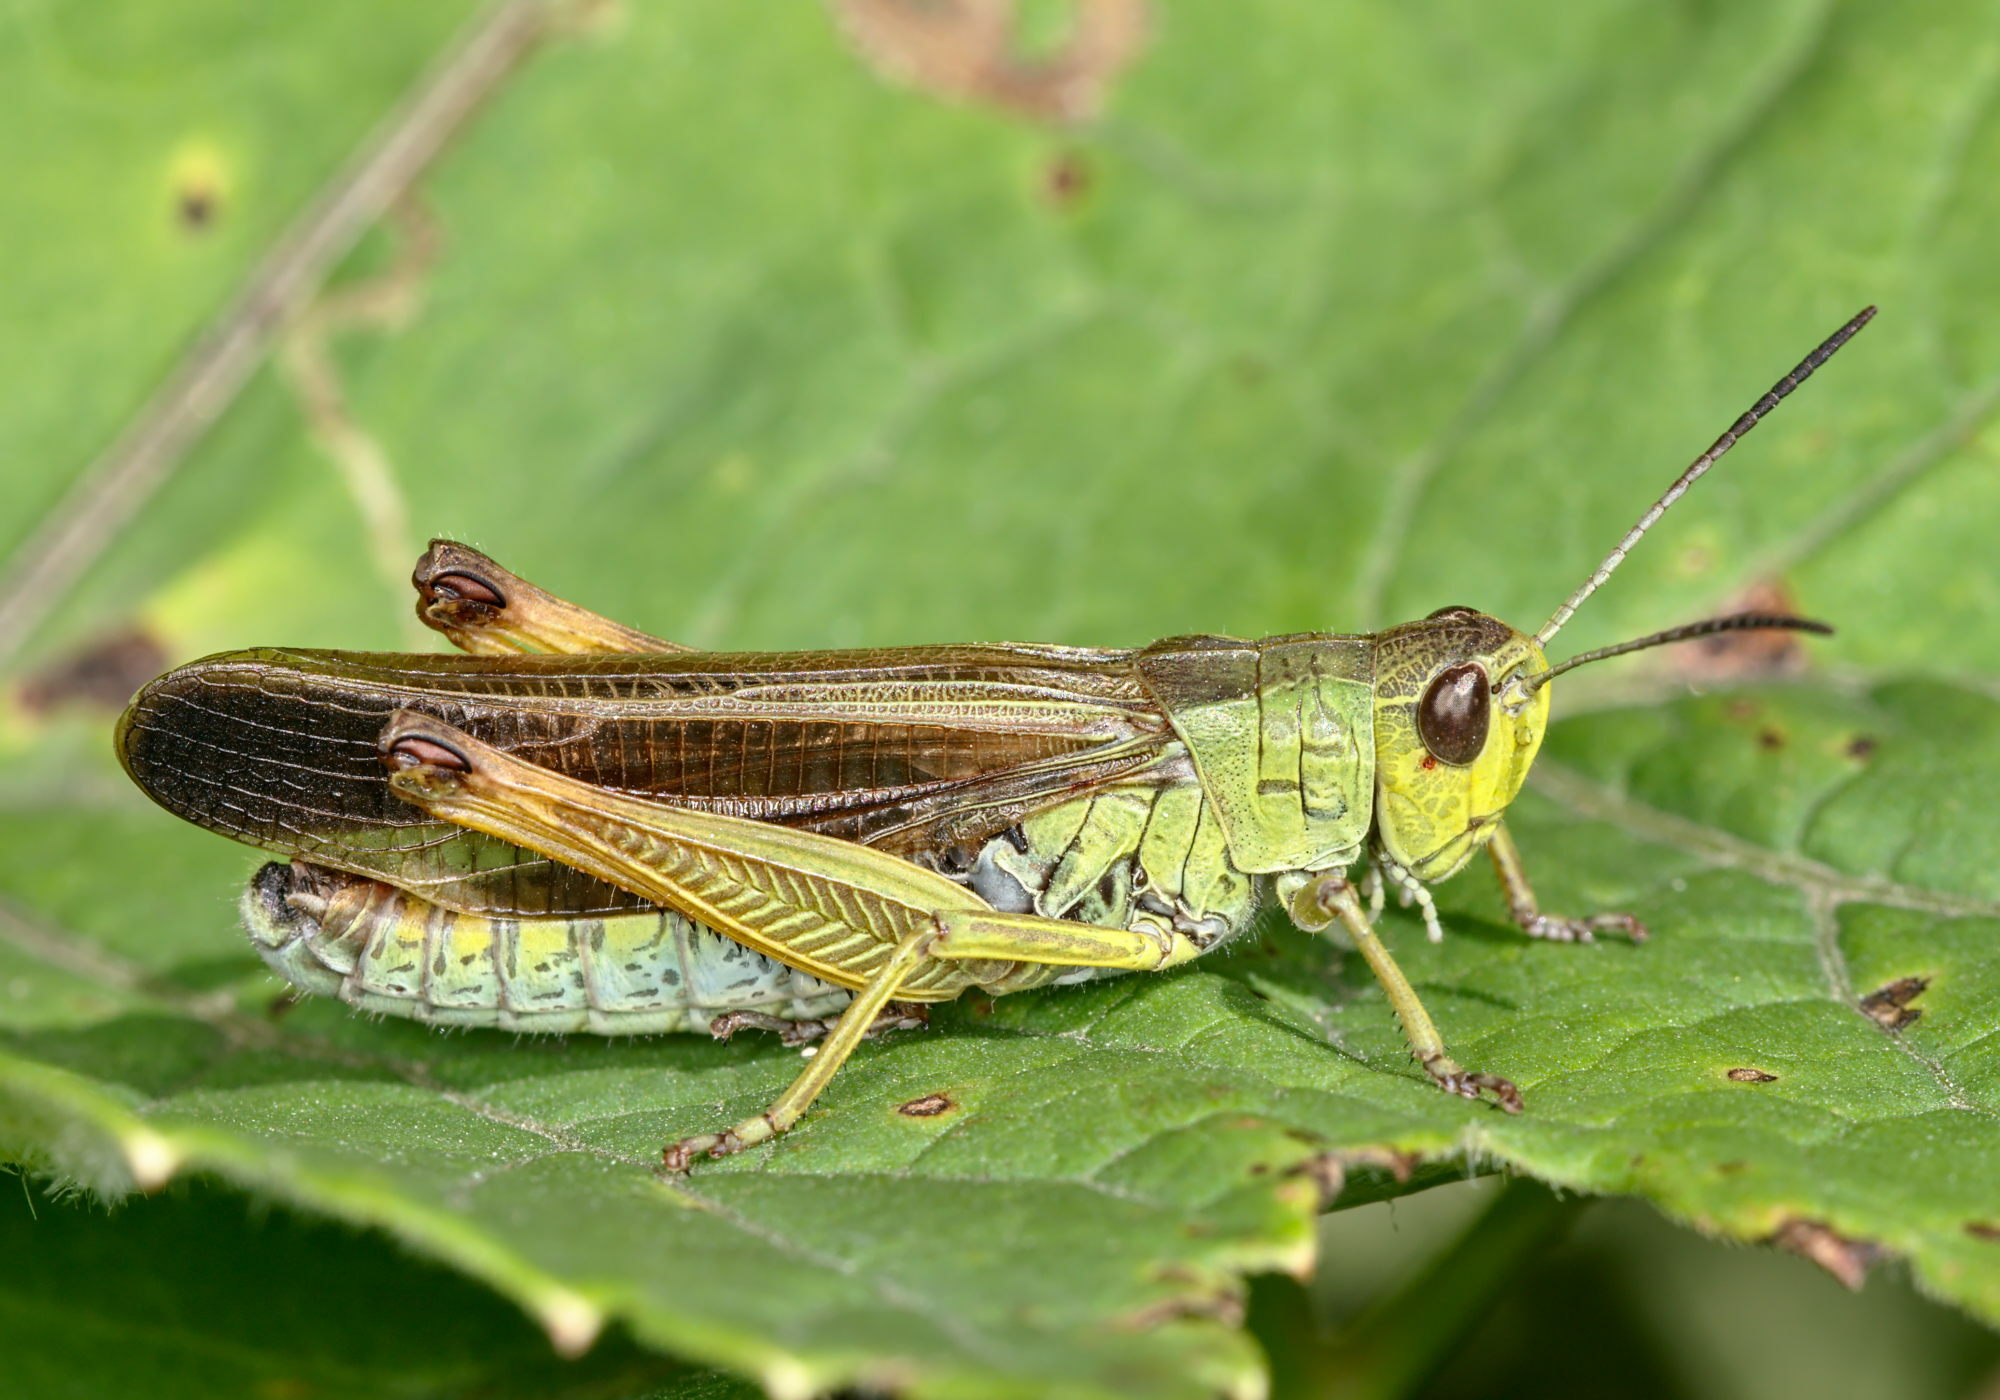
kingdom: Animalia
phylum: Arthropoda
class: Insecta
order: Orthoptera
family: Acrididae
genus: Stauroderus
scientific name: Stauroderus scalaris
